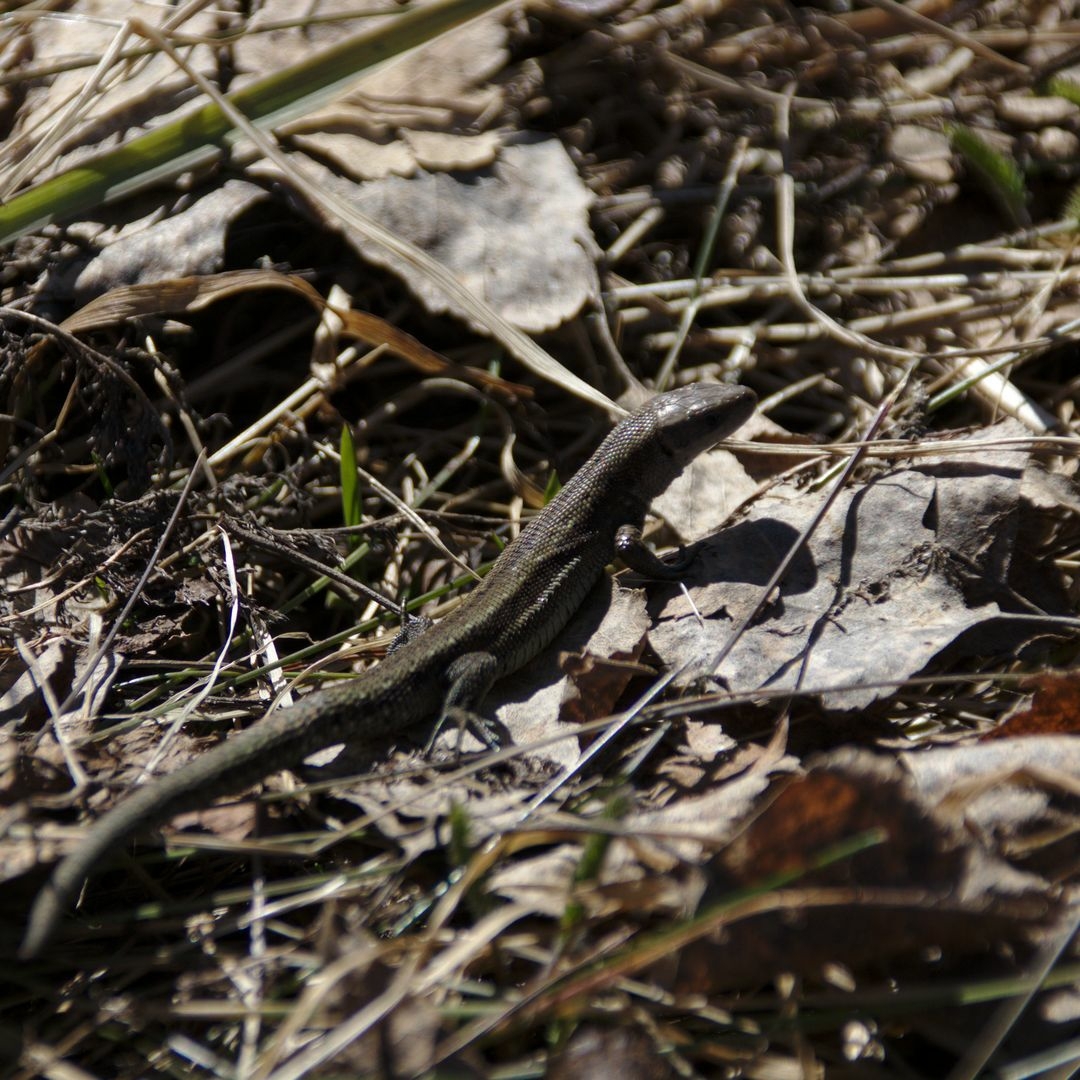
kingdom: Animalia
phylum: Chordata
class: Squamata
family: Lacertidae
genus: Zootoca
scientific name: Zootoca vivipara
